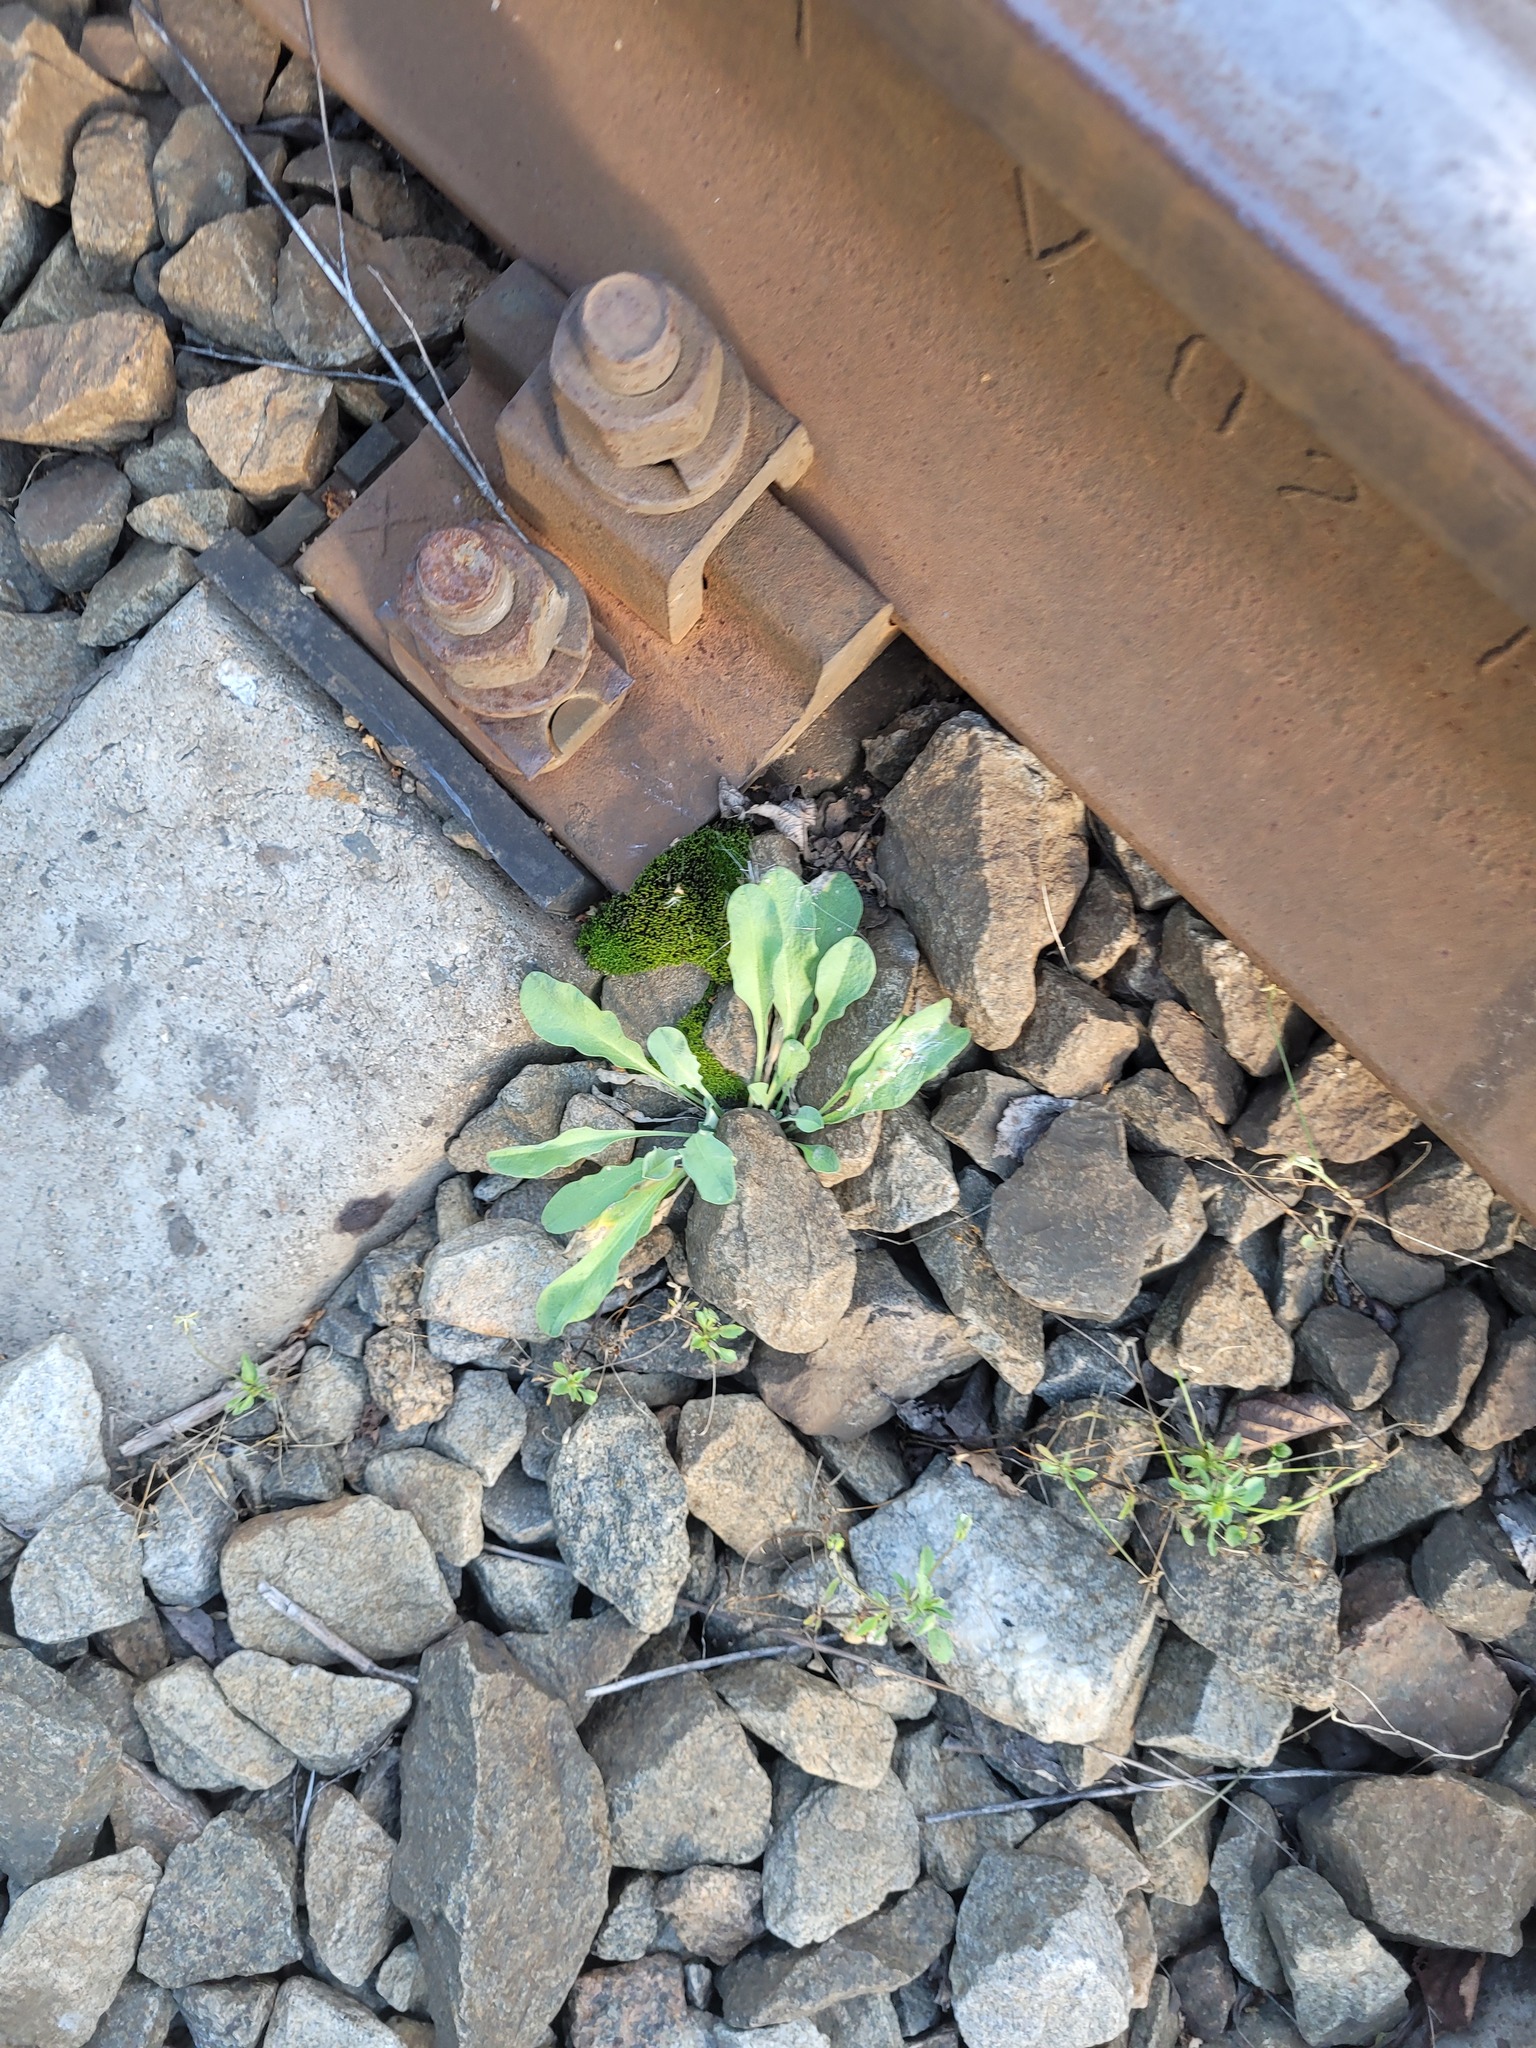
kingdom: Plantae
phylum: Tracheophyta
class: Magnoliopsida
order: Brassicales
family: Brassicaceae
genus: Berteroa
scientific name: Berteroa incana
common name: Hoary alison
